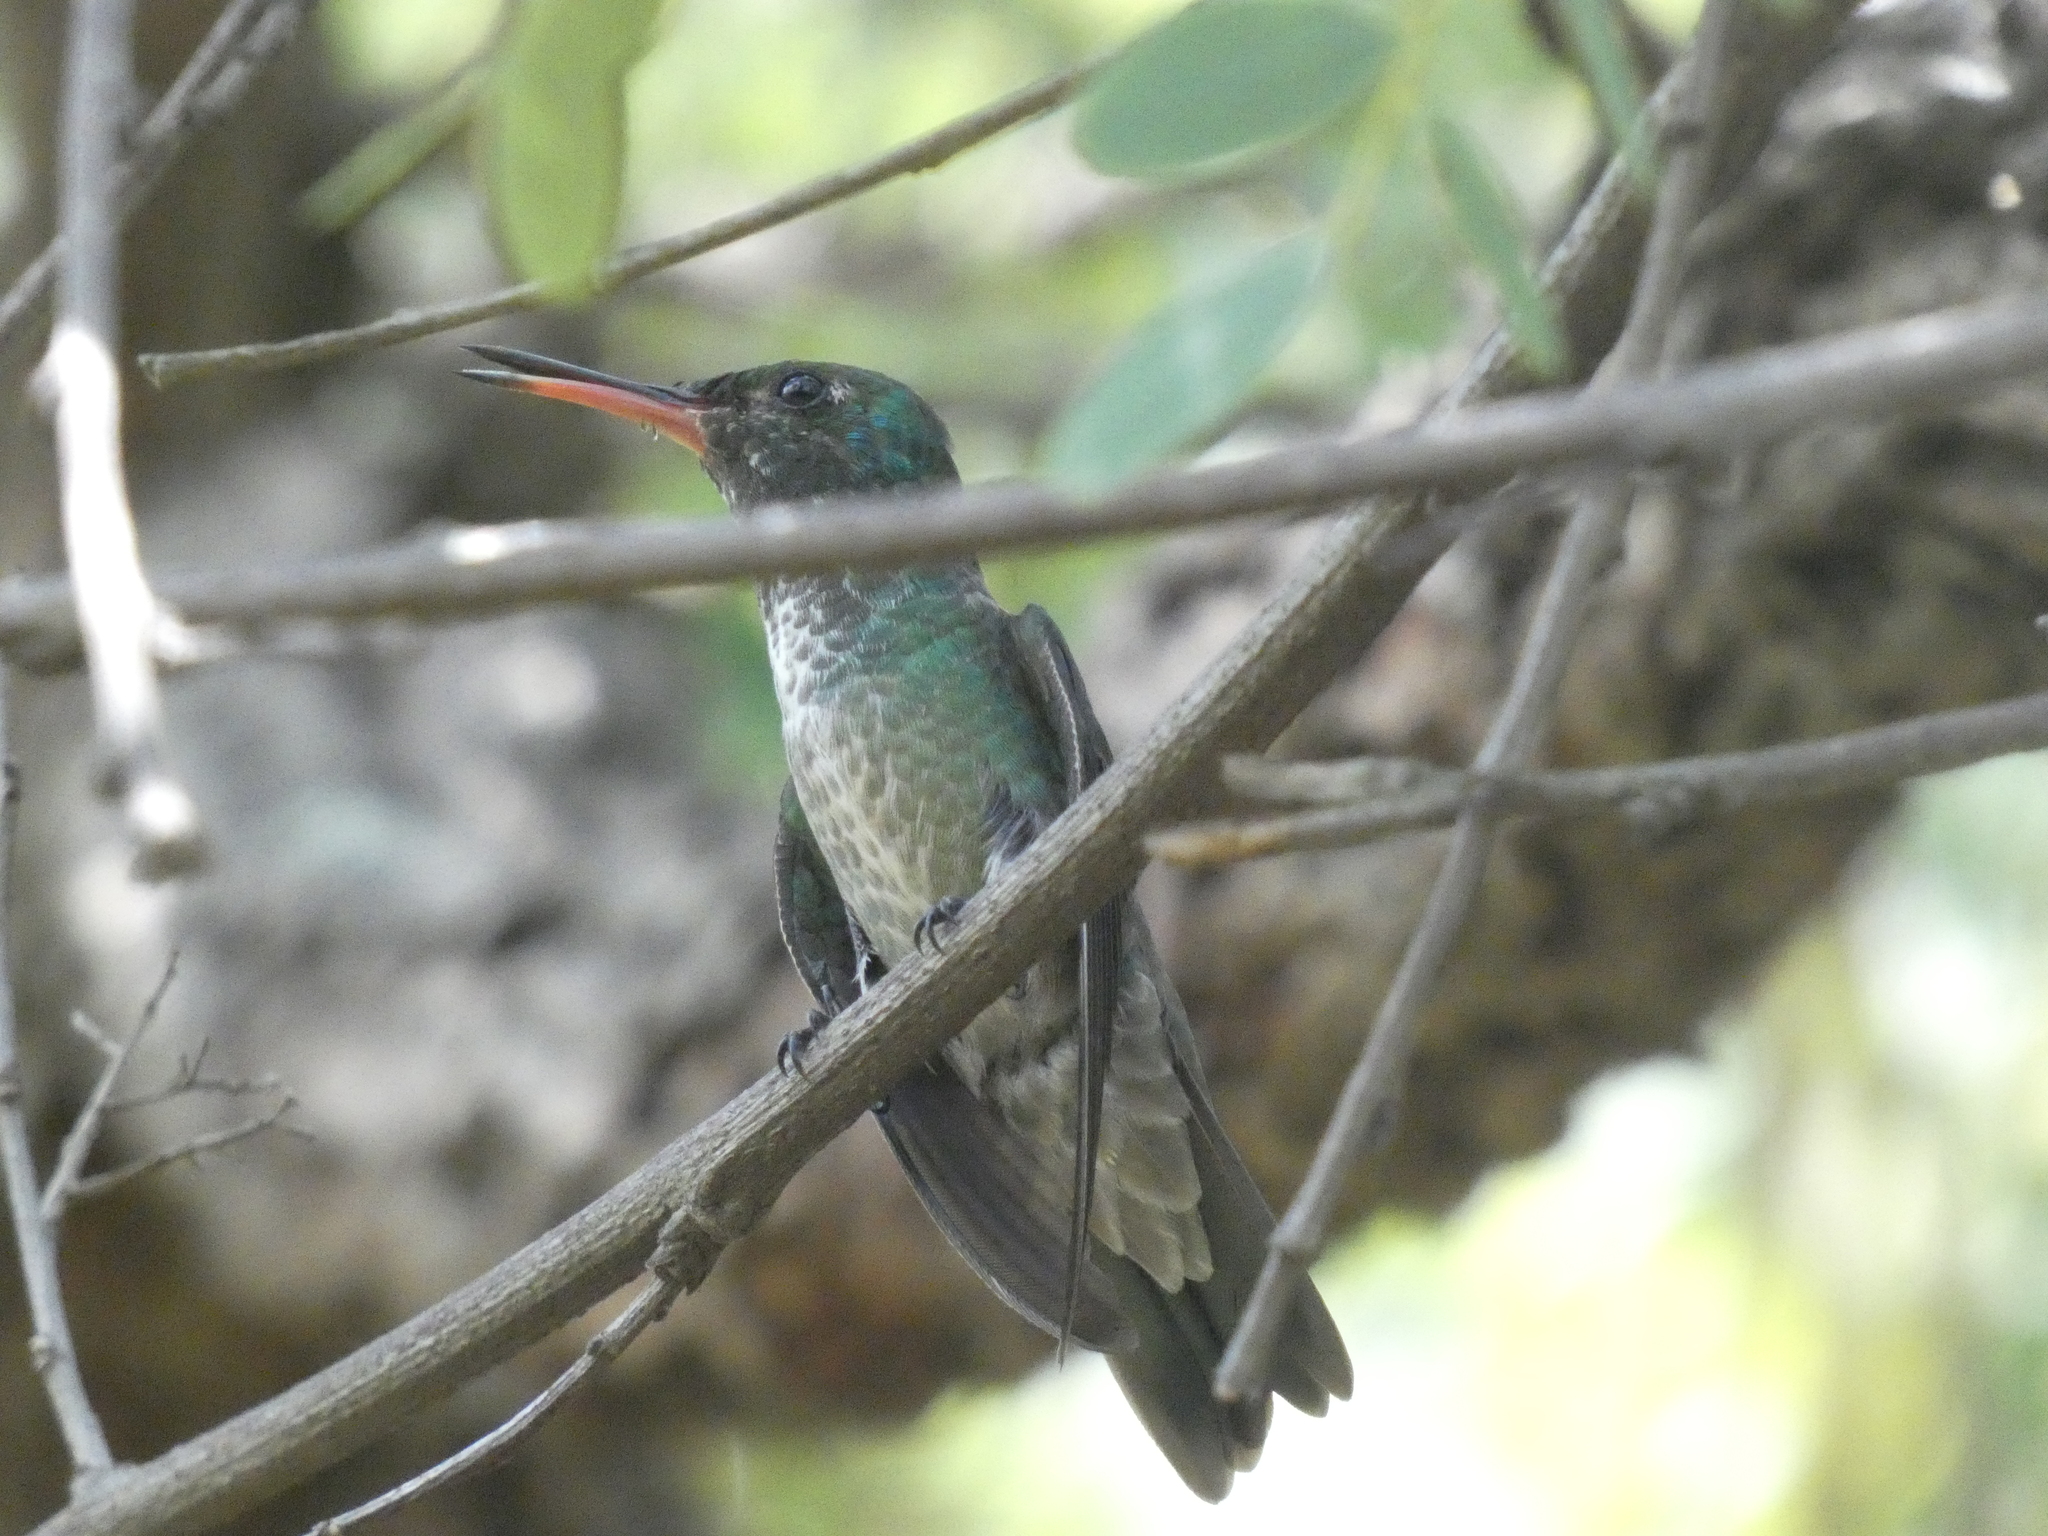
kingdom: Animalia
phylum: Chordata
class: Aves
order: Apodiformes
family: Trochilidae
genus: Chrysuronia
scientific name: Chrysuronia versicolor
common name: Versicolored emerald
